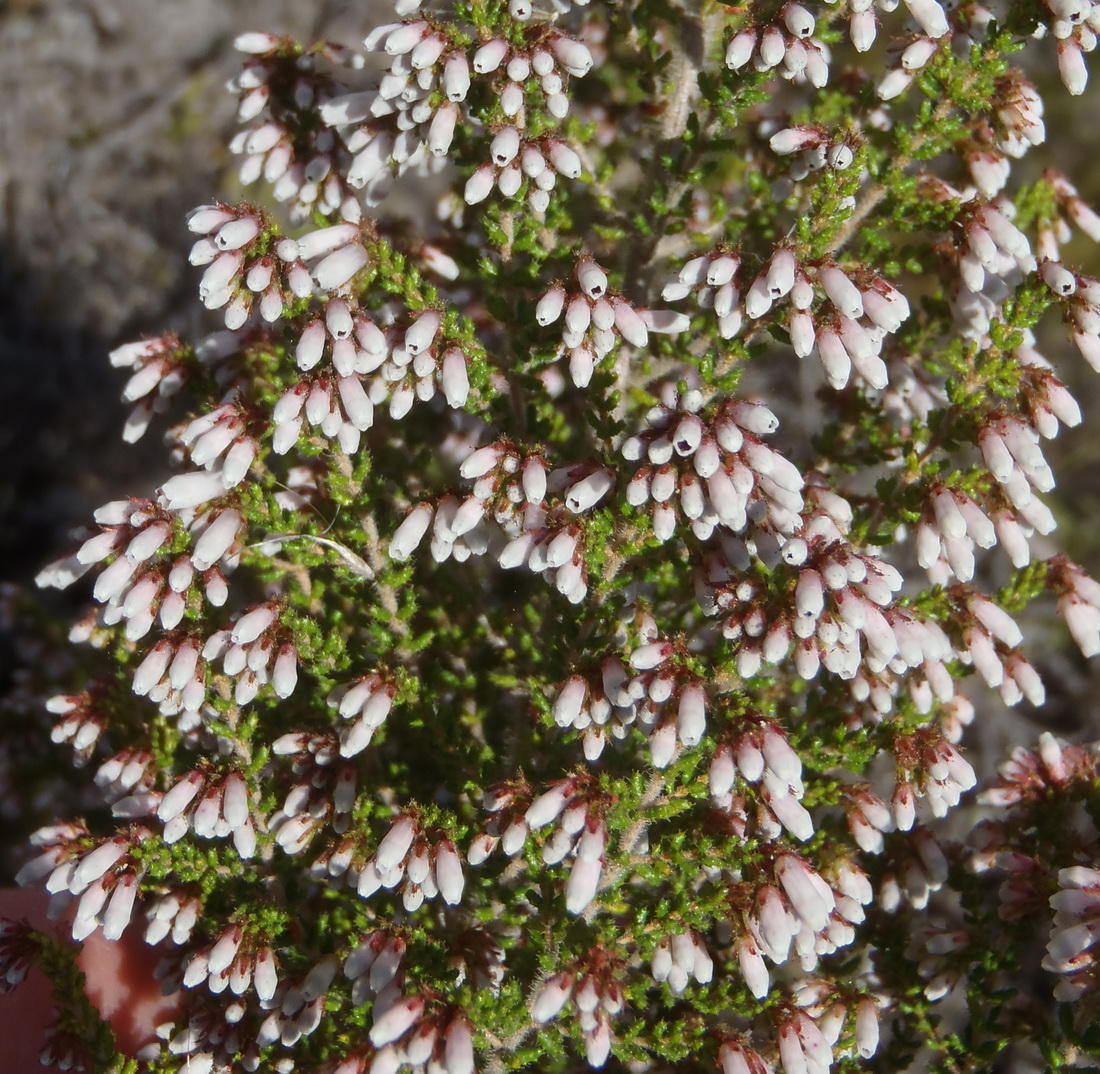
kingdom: Plantae
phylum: Tracheophyta
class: Magnoliopsida
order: Ericales
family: Ericaceae
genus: Erica
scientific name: Erica scabriuscula
